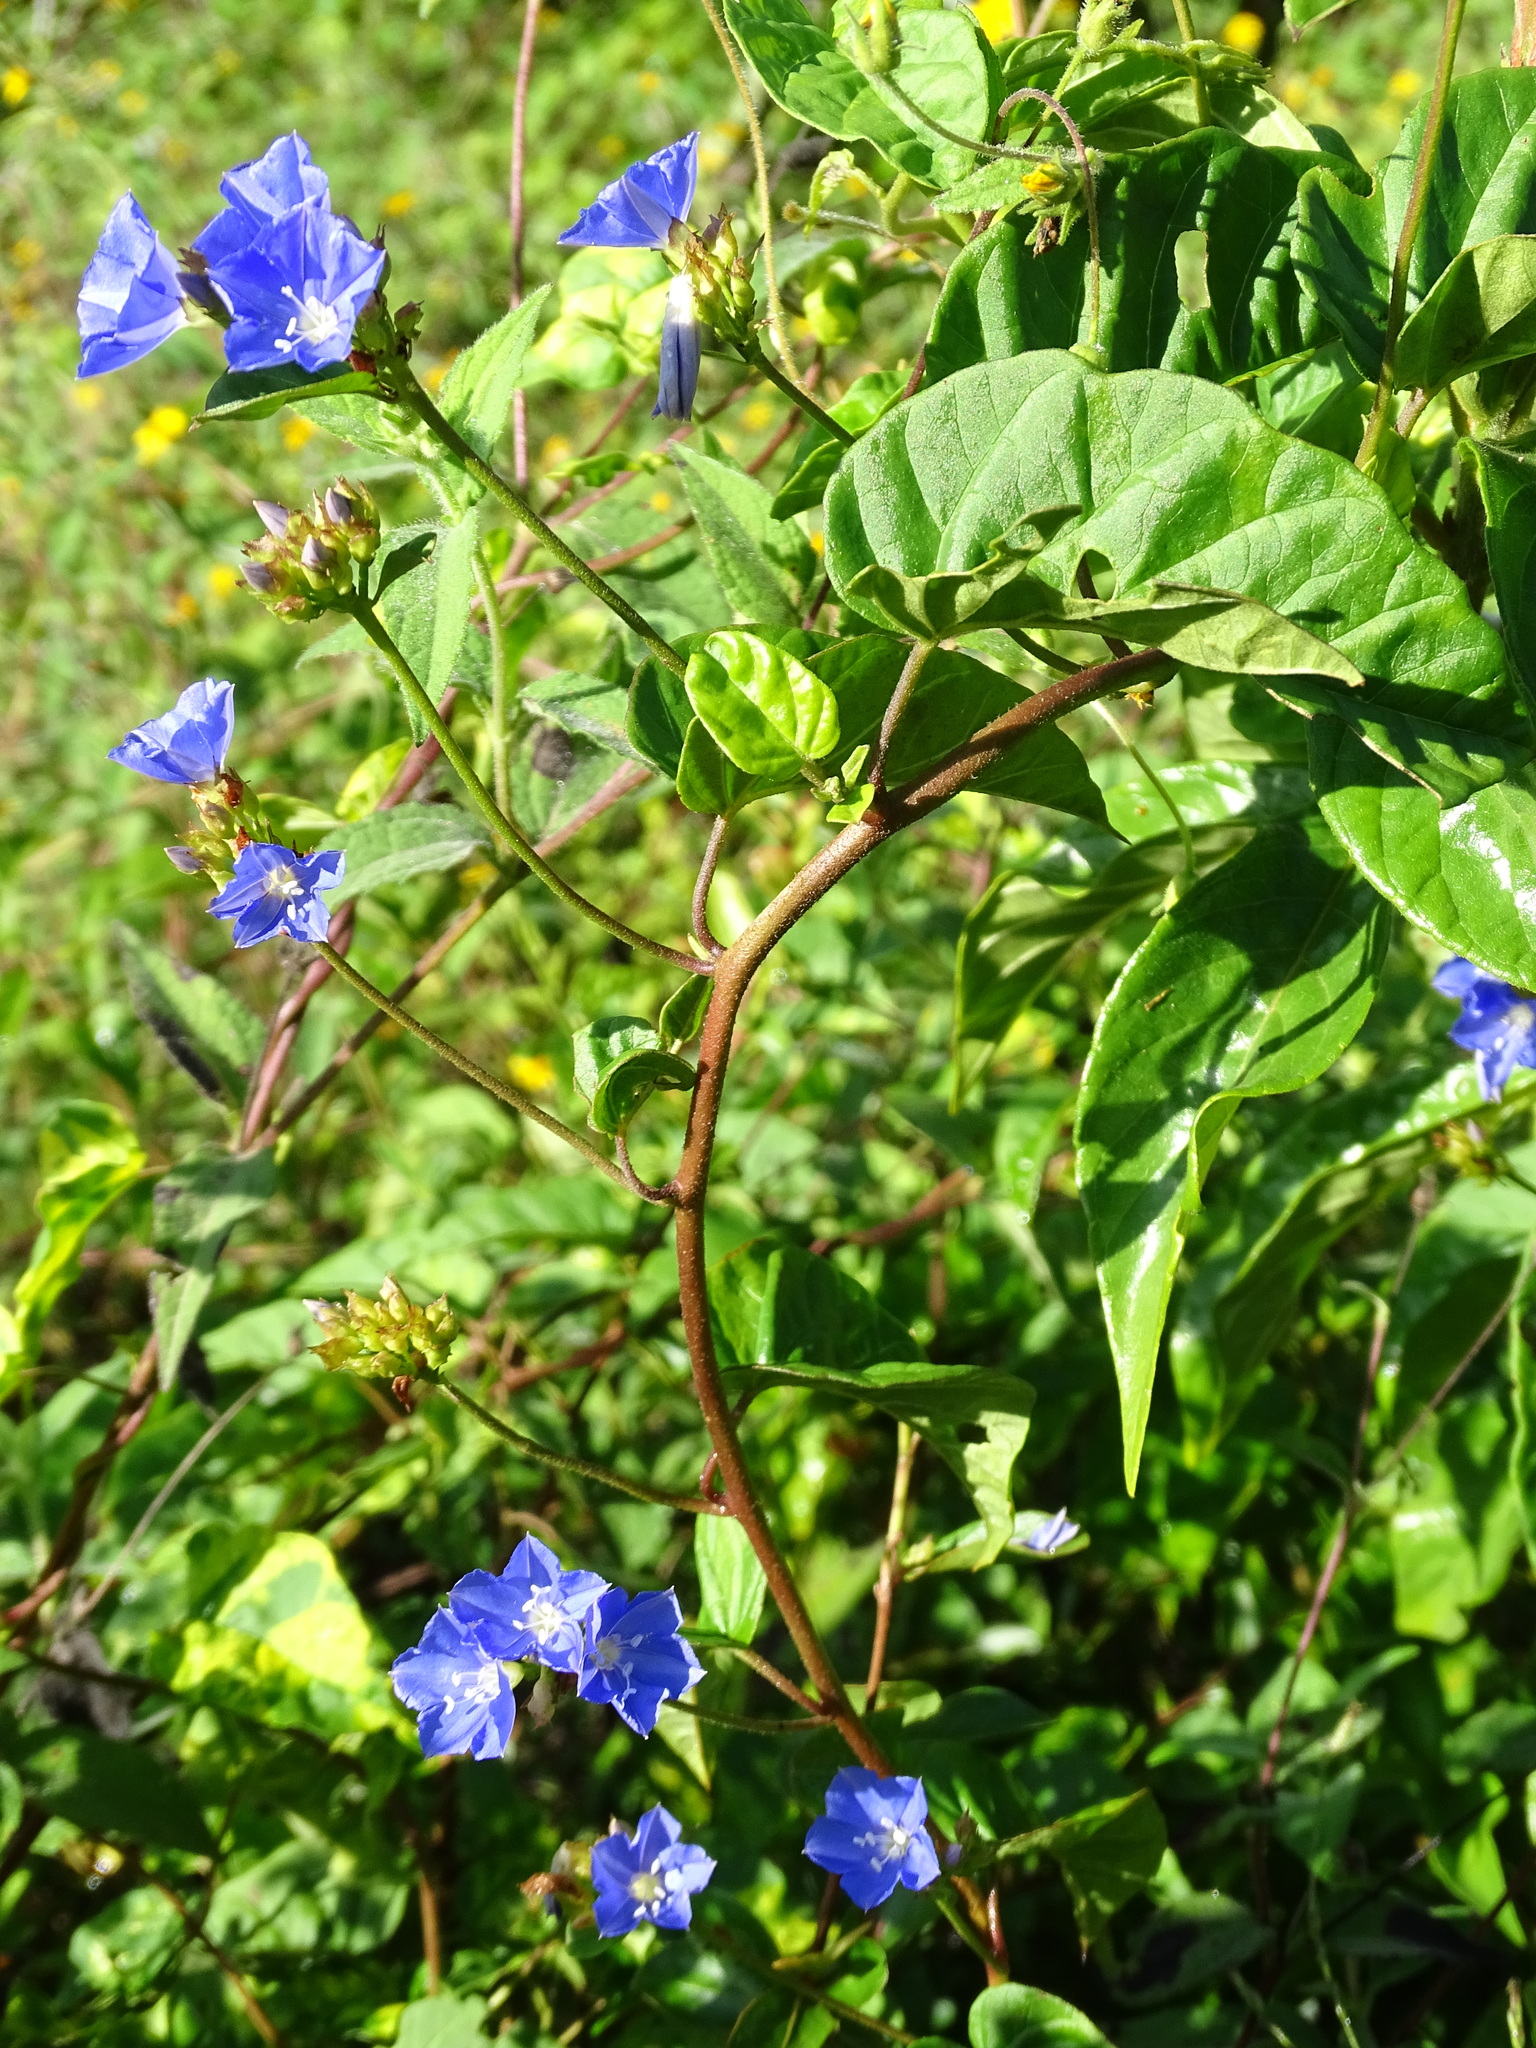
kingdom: Plantae
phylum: Tracheophyta
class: Magnoliopsida
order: Solanales
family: Convolvulaceae
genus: Jacquemontia
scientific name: Jacquemontia pentanthos
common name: Skyblue clustervine
